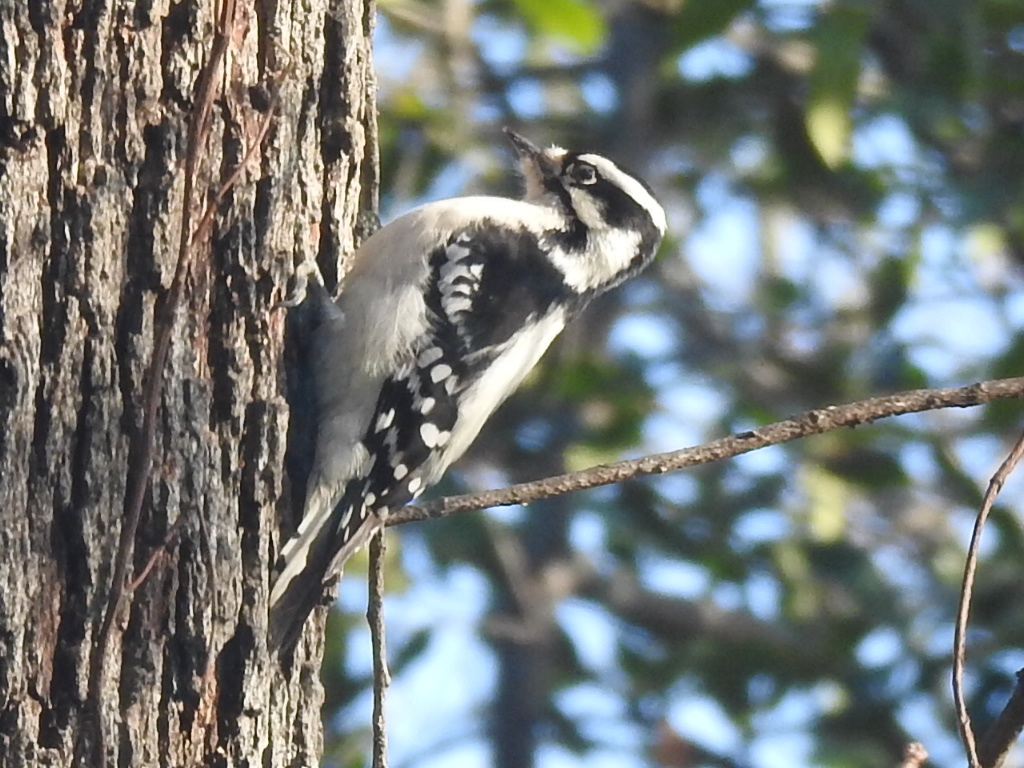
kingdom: Animalia
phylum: Chordata
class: Aves
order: Piciformes
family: Picidae
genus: Dryobates
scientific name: Dryobates pubescens
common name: Downy woodpecker
